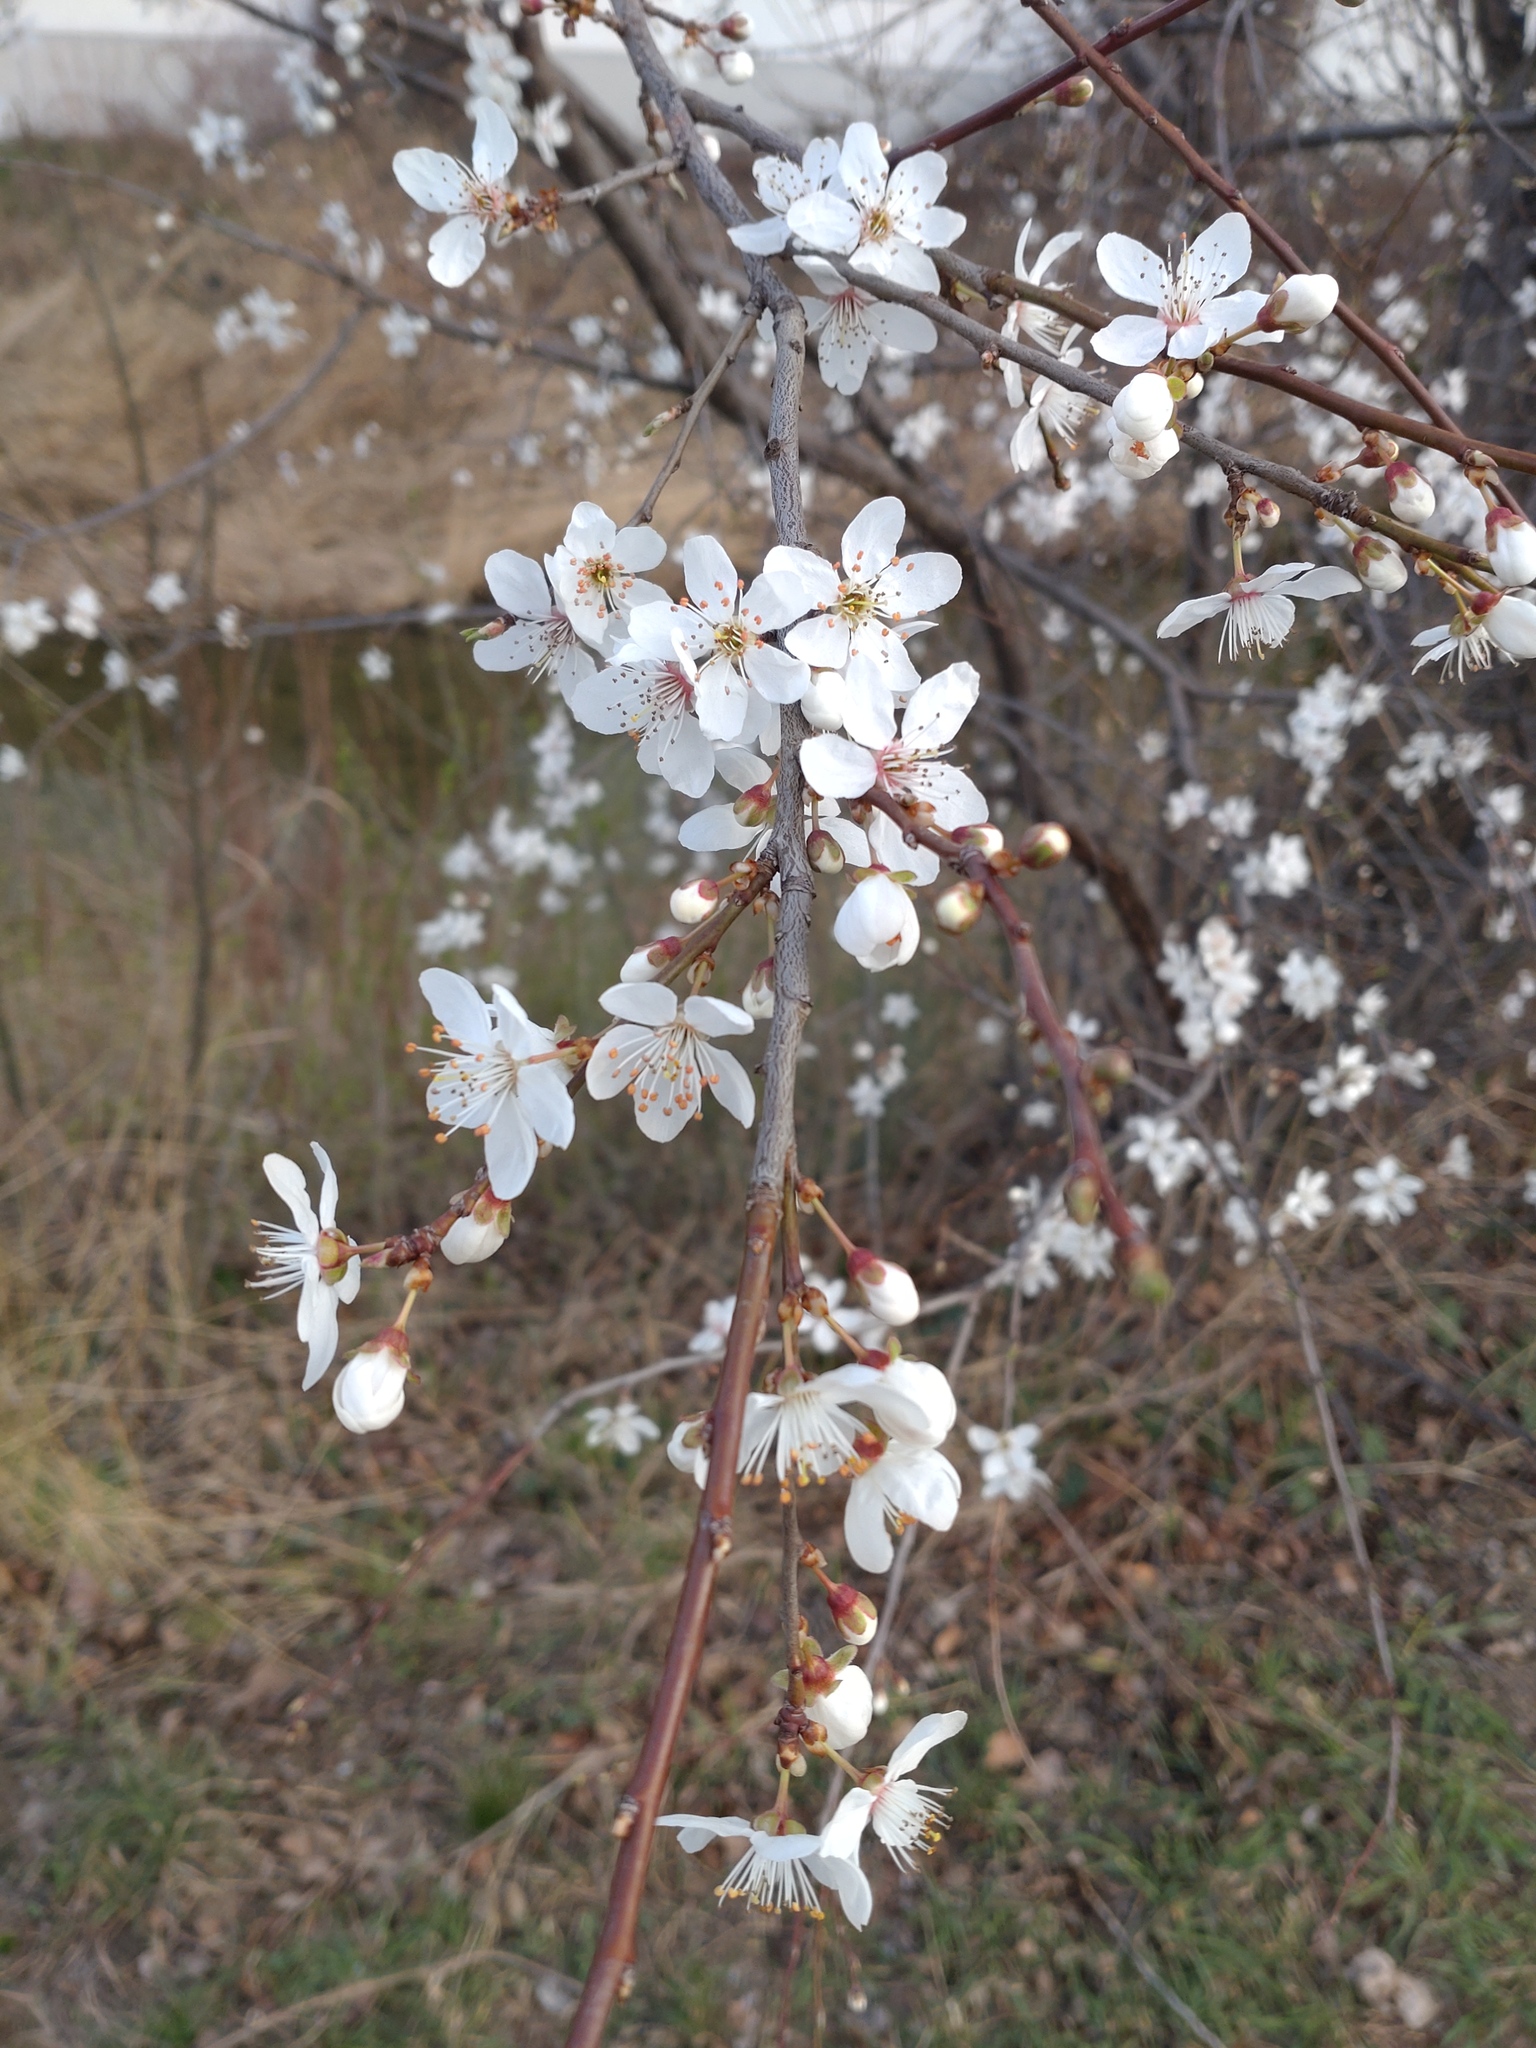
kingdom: Plantae
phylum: Tracheophyta
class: Magnoliopsida
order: Rosales
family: Rosaceae
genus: Prunus
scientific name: Prunus cerasifera
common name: Cherry plum
